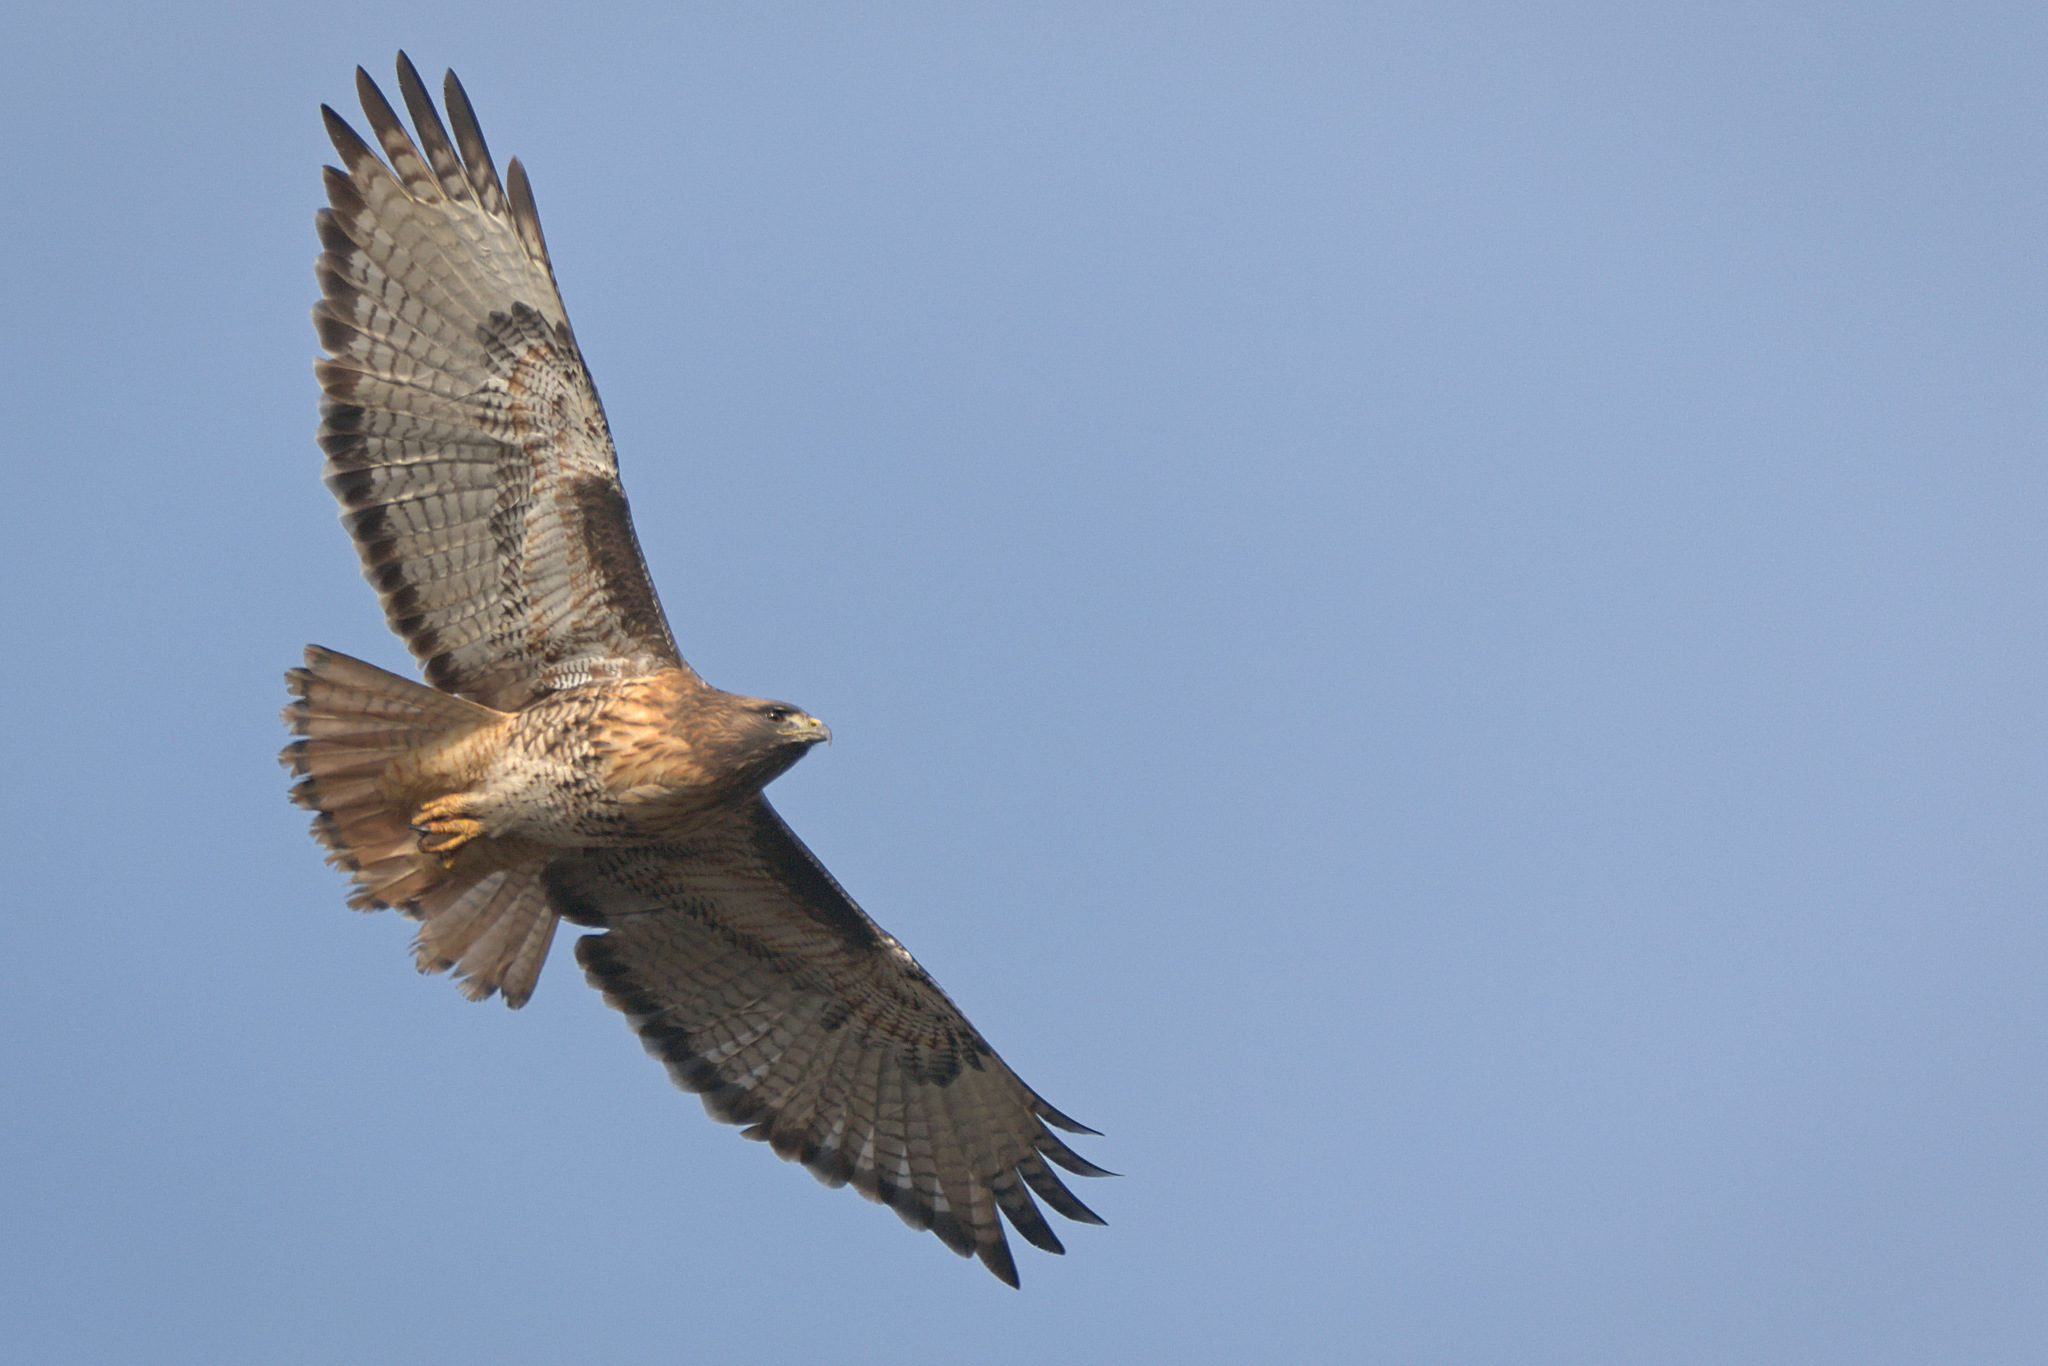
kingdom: Animalia
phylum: Chordata
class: Aves
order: Accipitriformes
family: Accipitridae
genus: Buteo
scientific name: Buteo jamaicensis
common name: Red-tailed hawk
